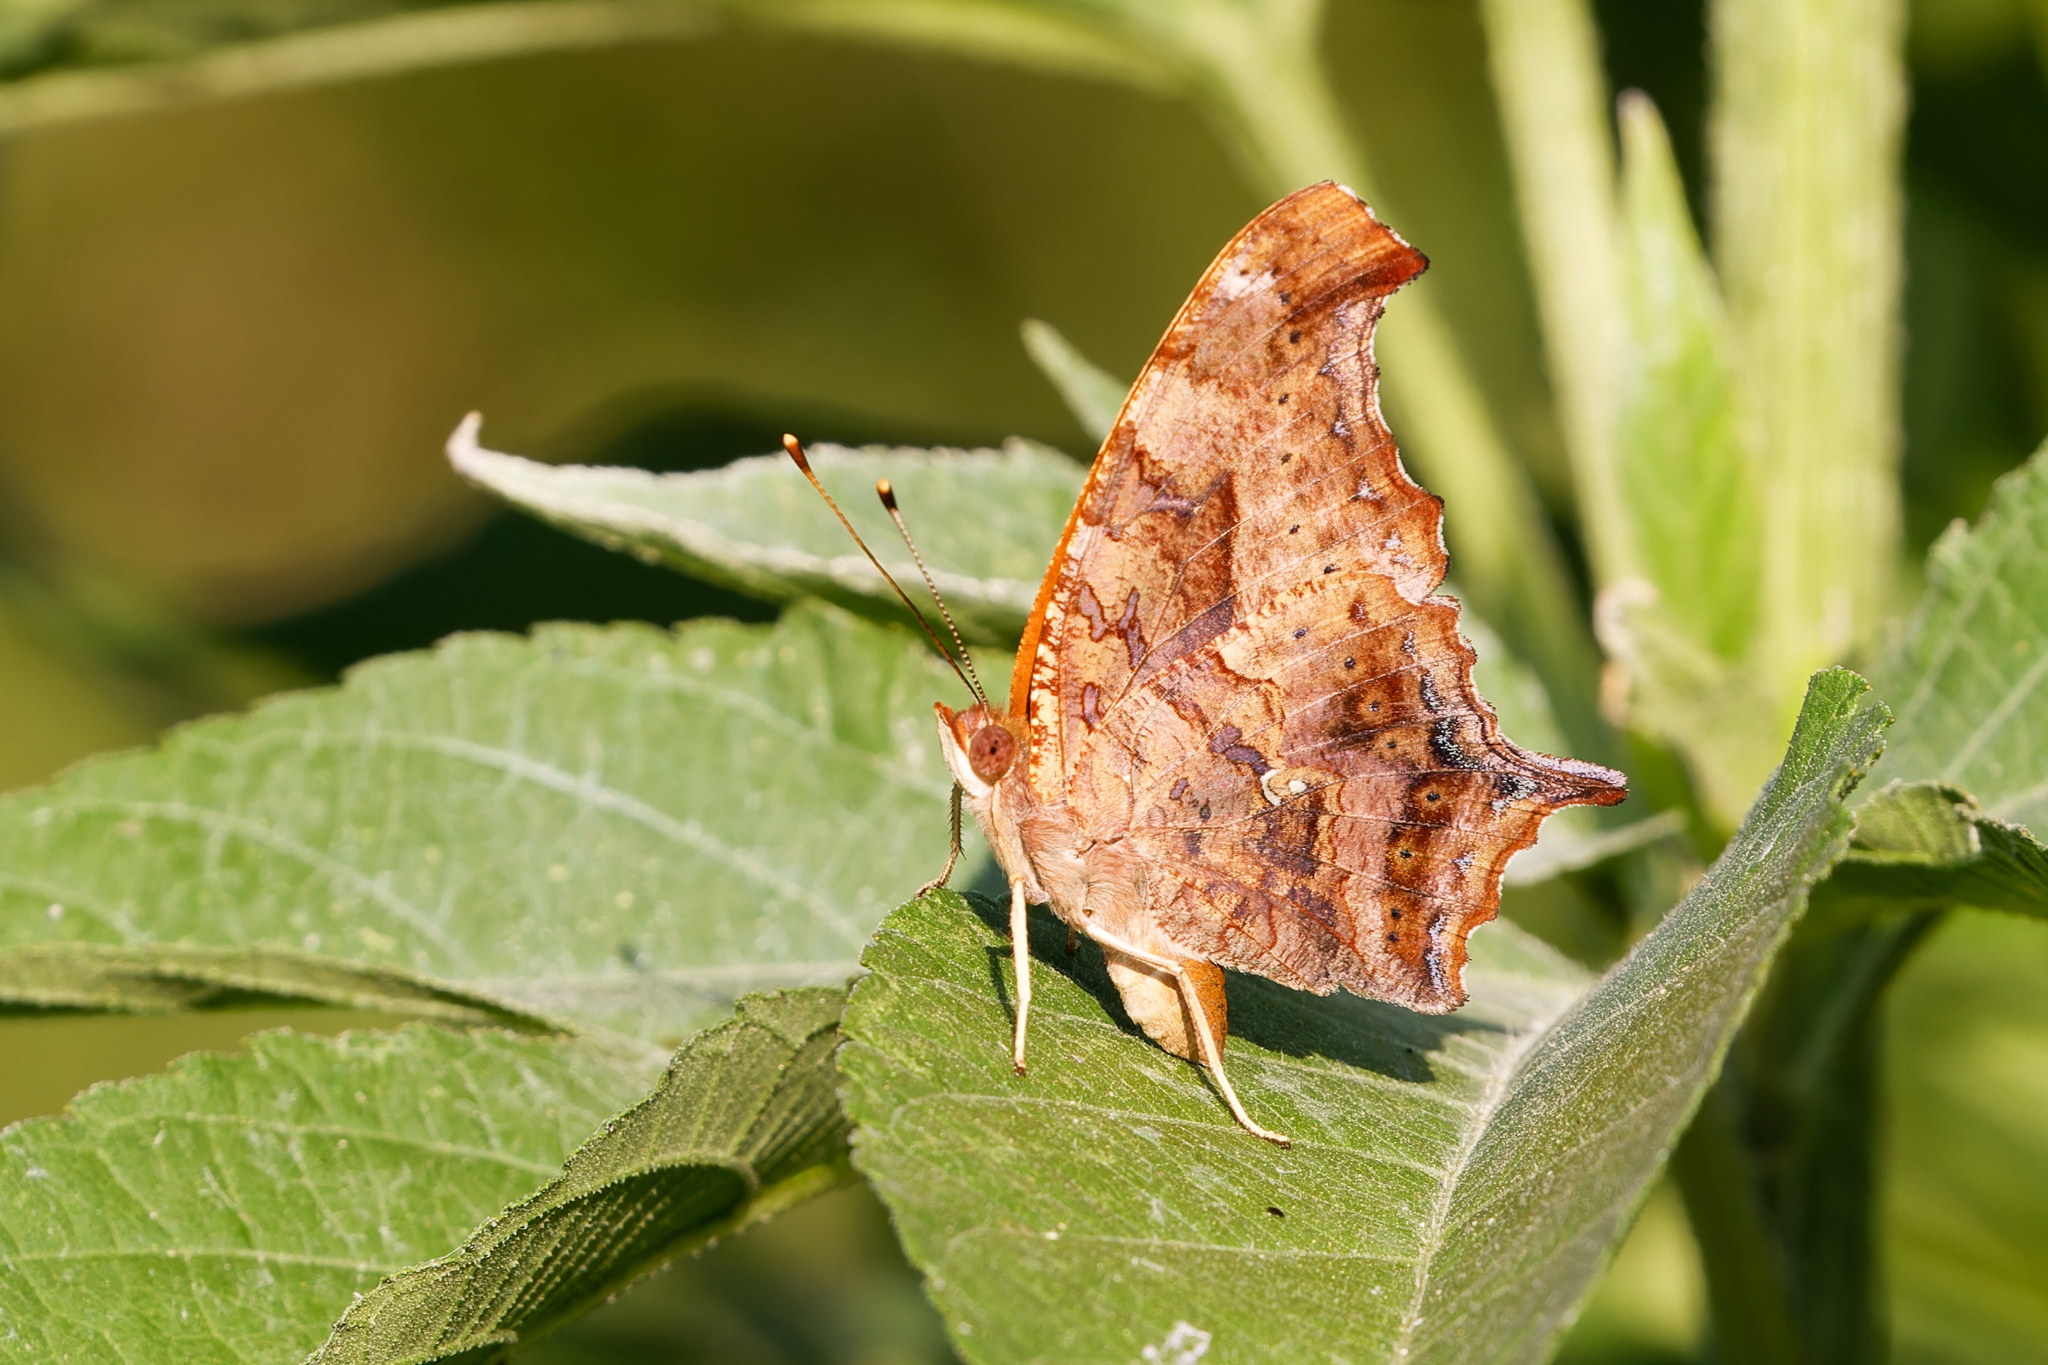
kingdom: Animalia
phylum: Arthropoda
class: Insecta
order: Lepidoptera
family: Nymphalidae
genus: Polygonia
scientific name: Polygonia interrogationis
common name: Question mark
